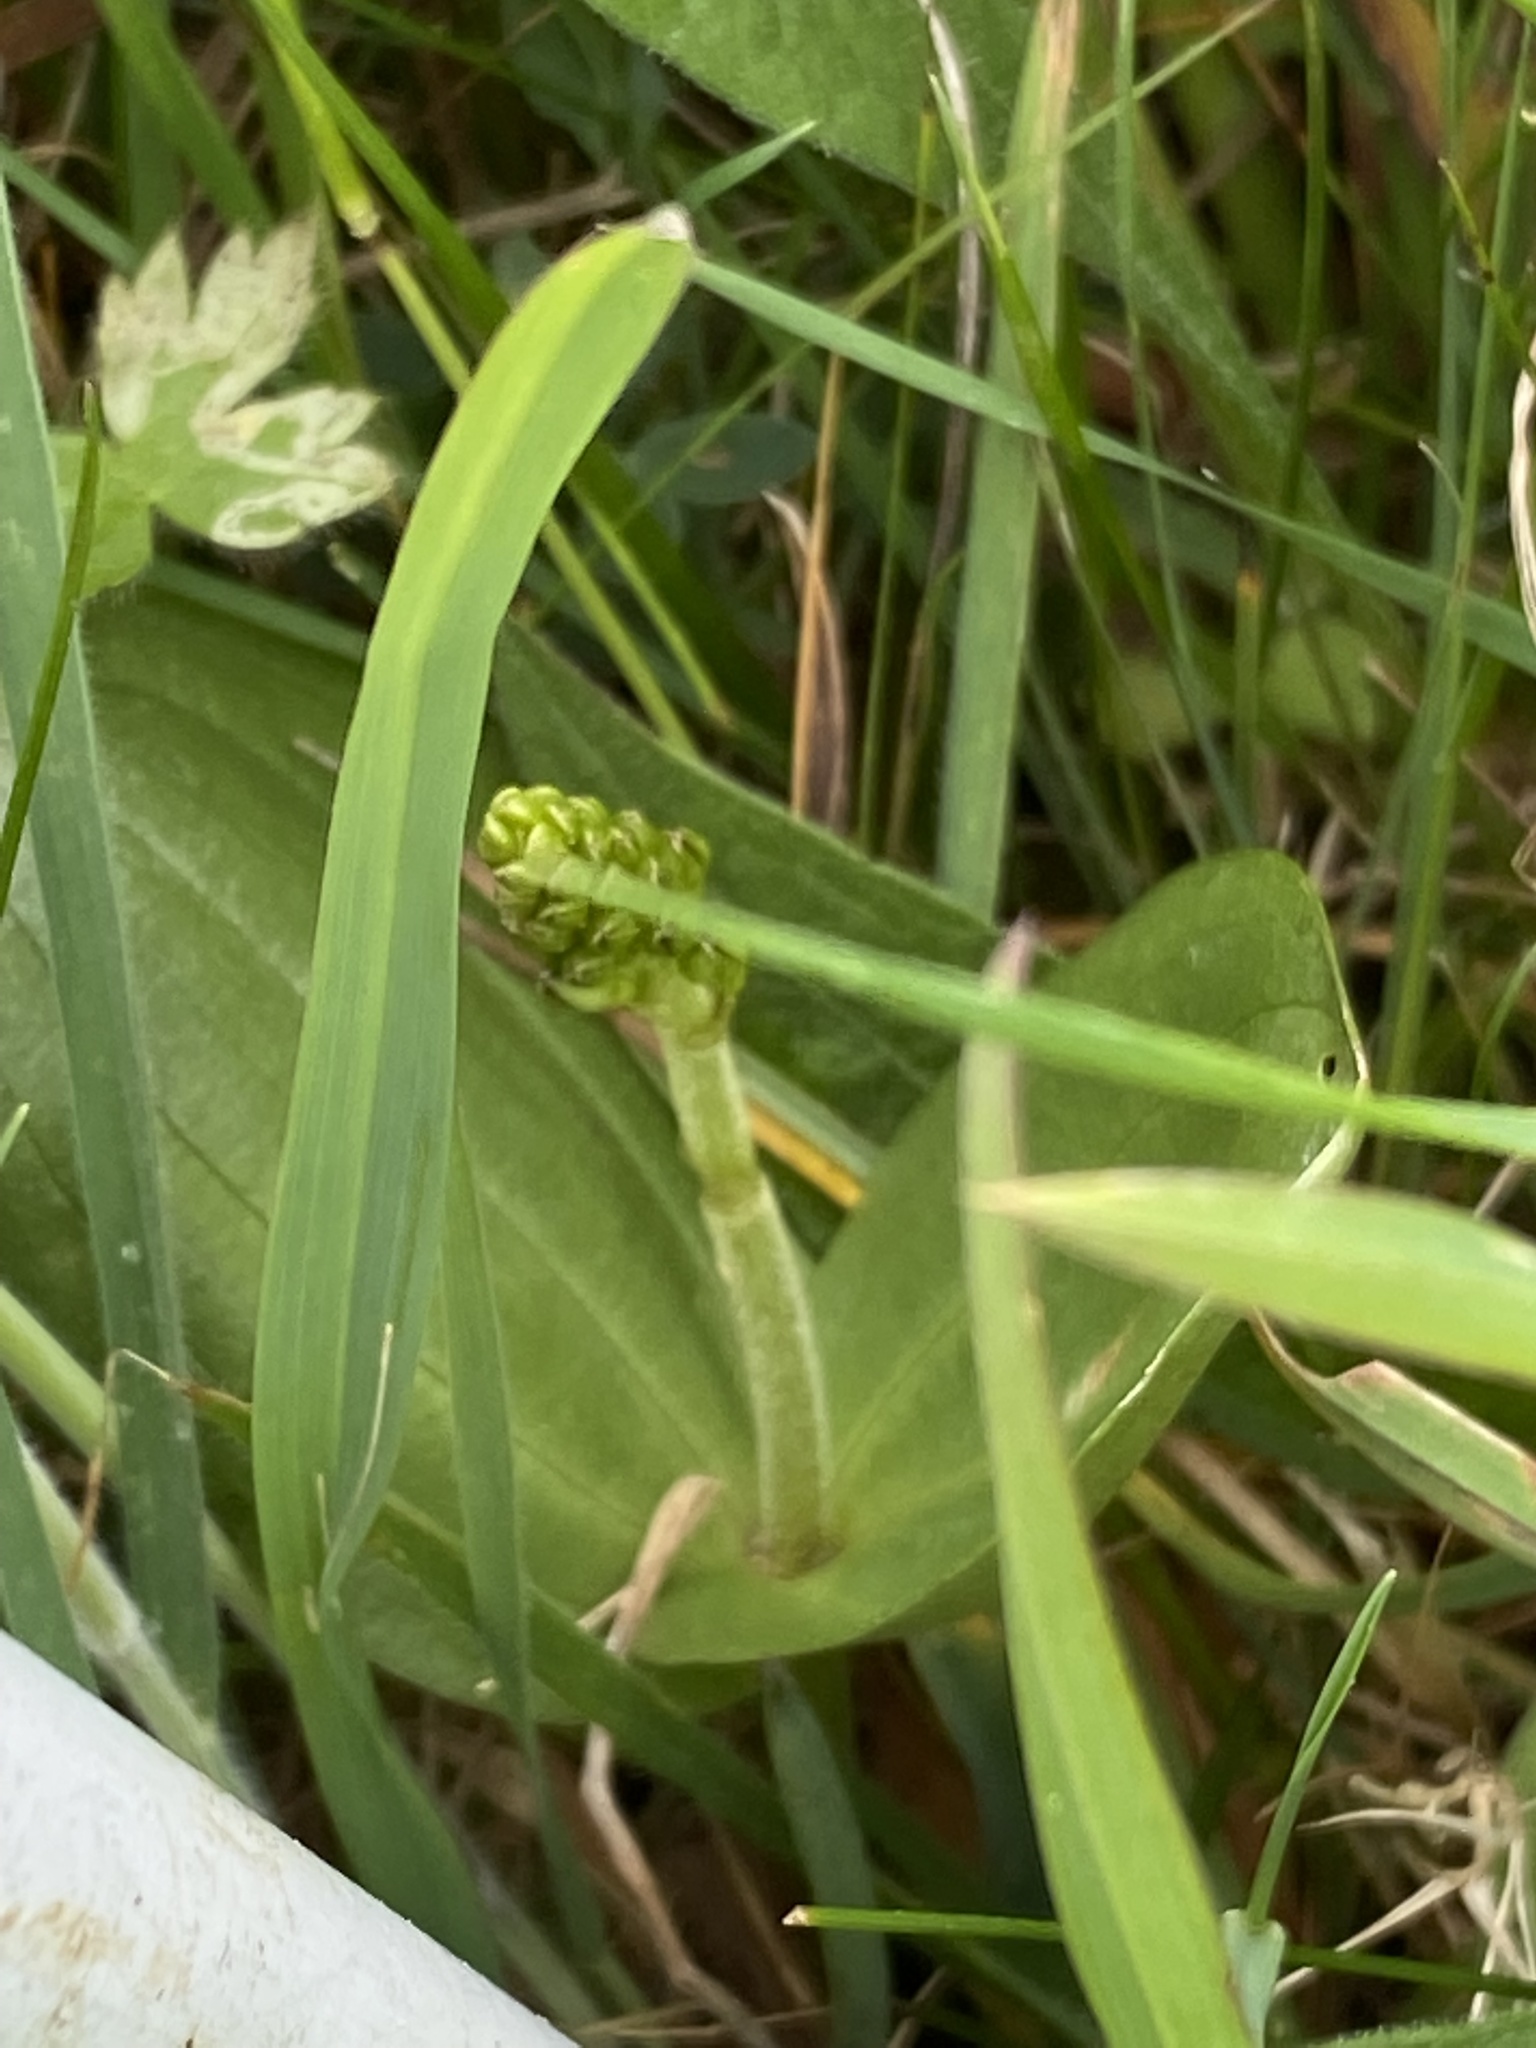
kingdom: Plantae
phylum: Tracheophyta
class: Liliopsida
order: Asparagales
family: Orchidaceae
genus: Neottia
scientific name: Neottia ovata
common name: Common twayblade
